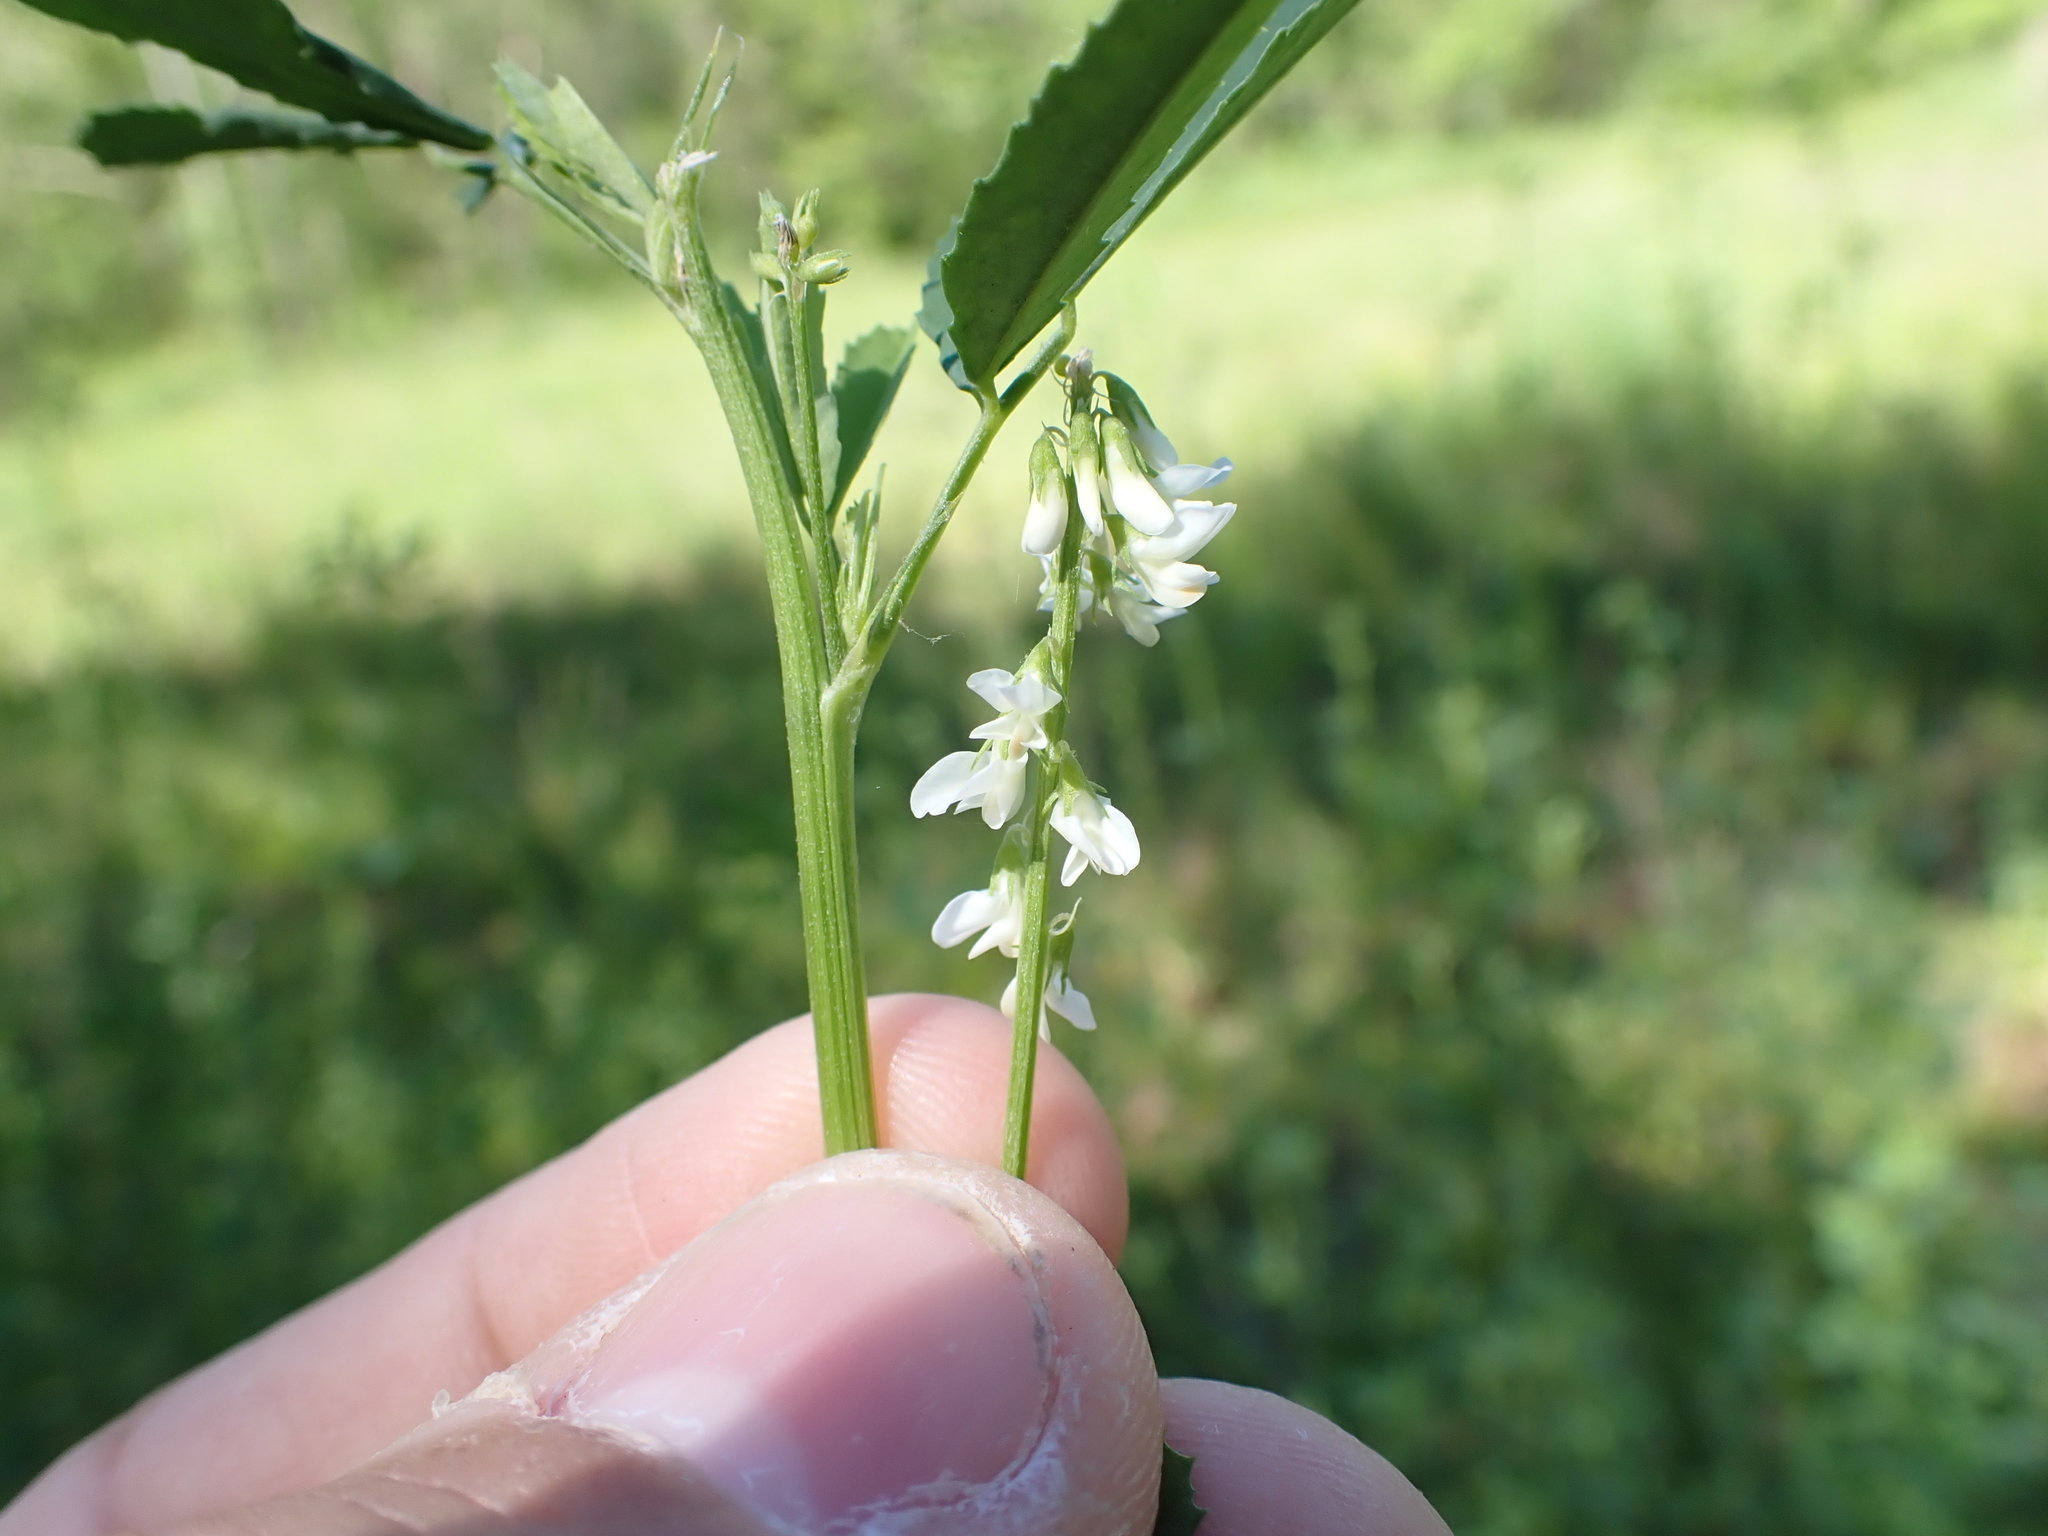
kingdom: Plantae
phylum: Tracheophyta
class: Magnoliopsida
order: Fabales
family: Fabaceae
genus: Melilotus
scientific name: Melilotus albus
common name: White melilot
